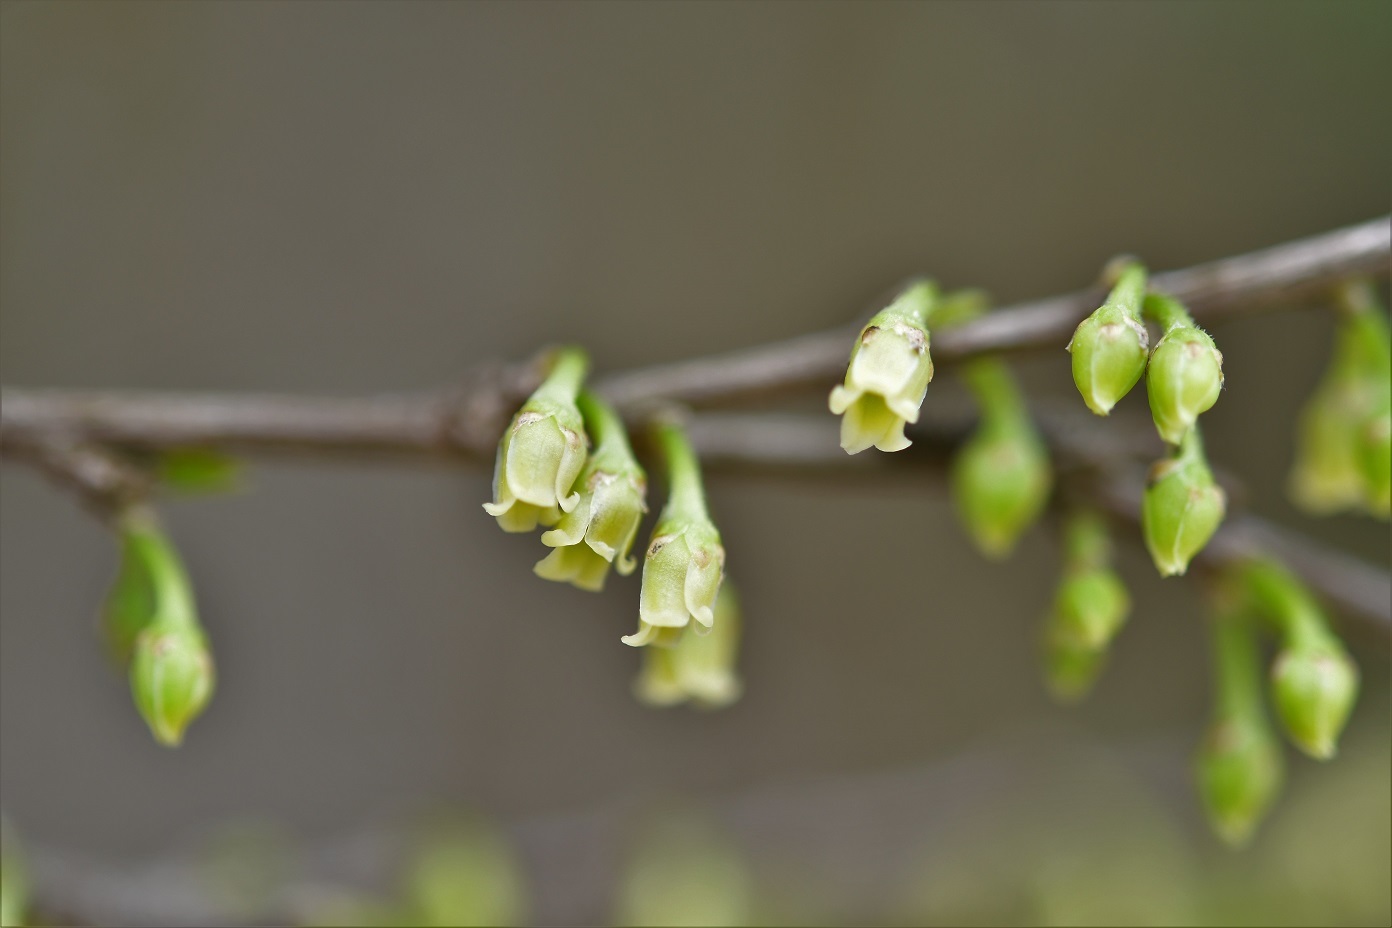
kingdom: Plantae
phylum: Tracheophyta
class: Magnoliopsida
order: Malpighiales
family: Erythroxylaceae
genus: Erythroxylum
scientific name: Erythroxylum guatemalense
